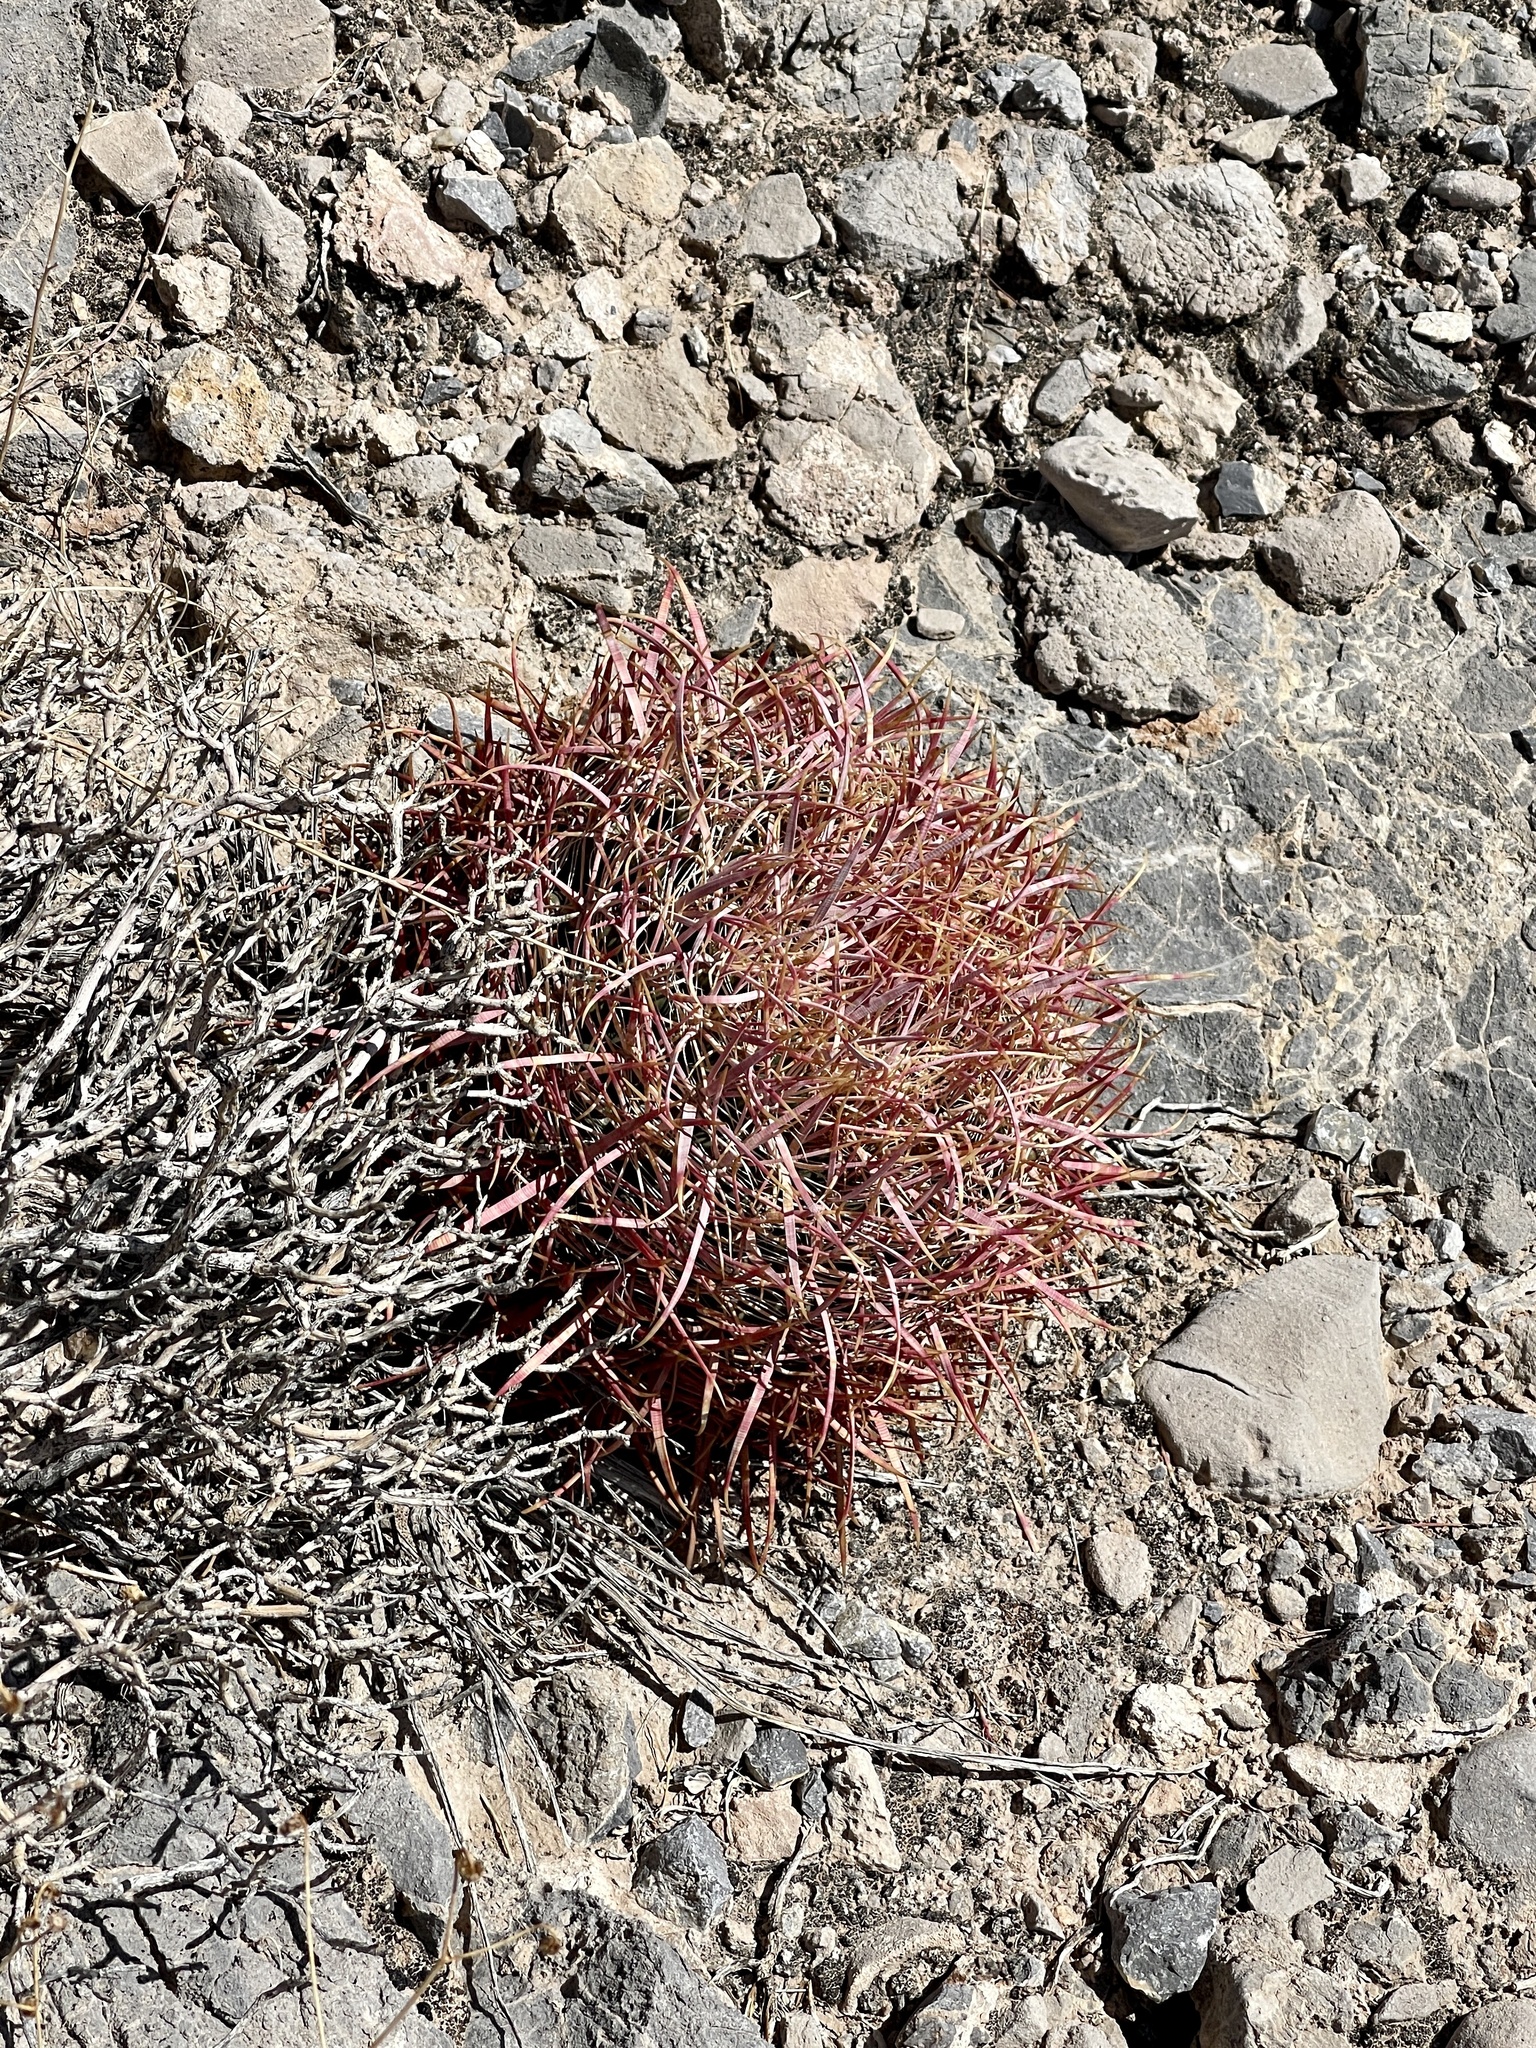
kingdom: Plantae
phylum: Tracheophyta
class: Magnoliopsida
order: Caryophyllales
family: Cactaceae
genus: Ferocactus
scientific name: Ferocactus cylindraceus
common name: California barrel cactus
